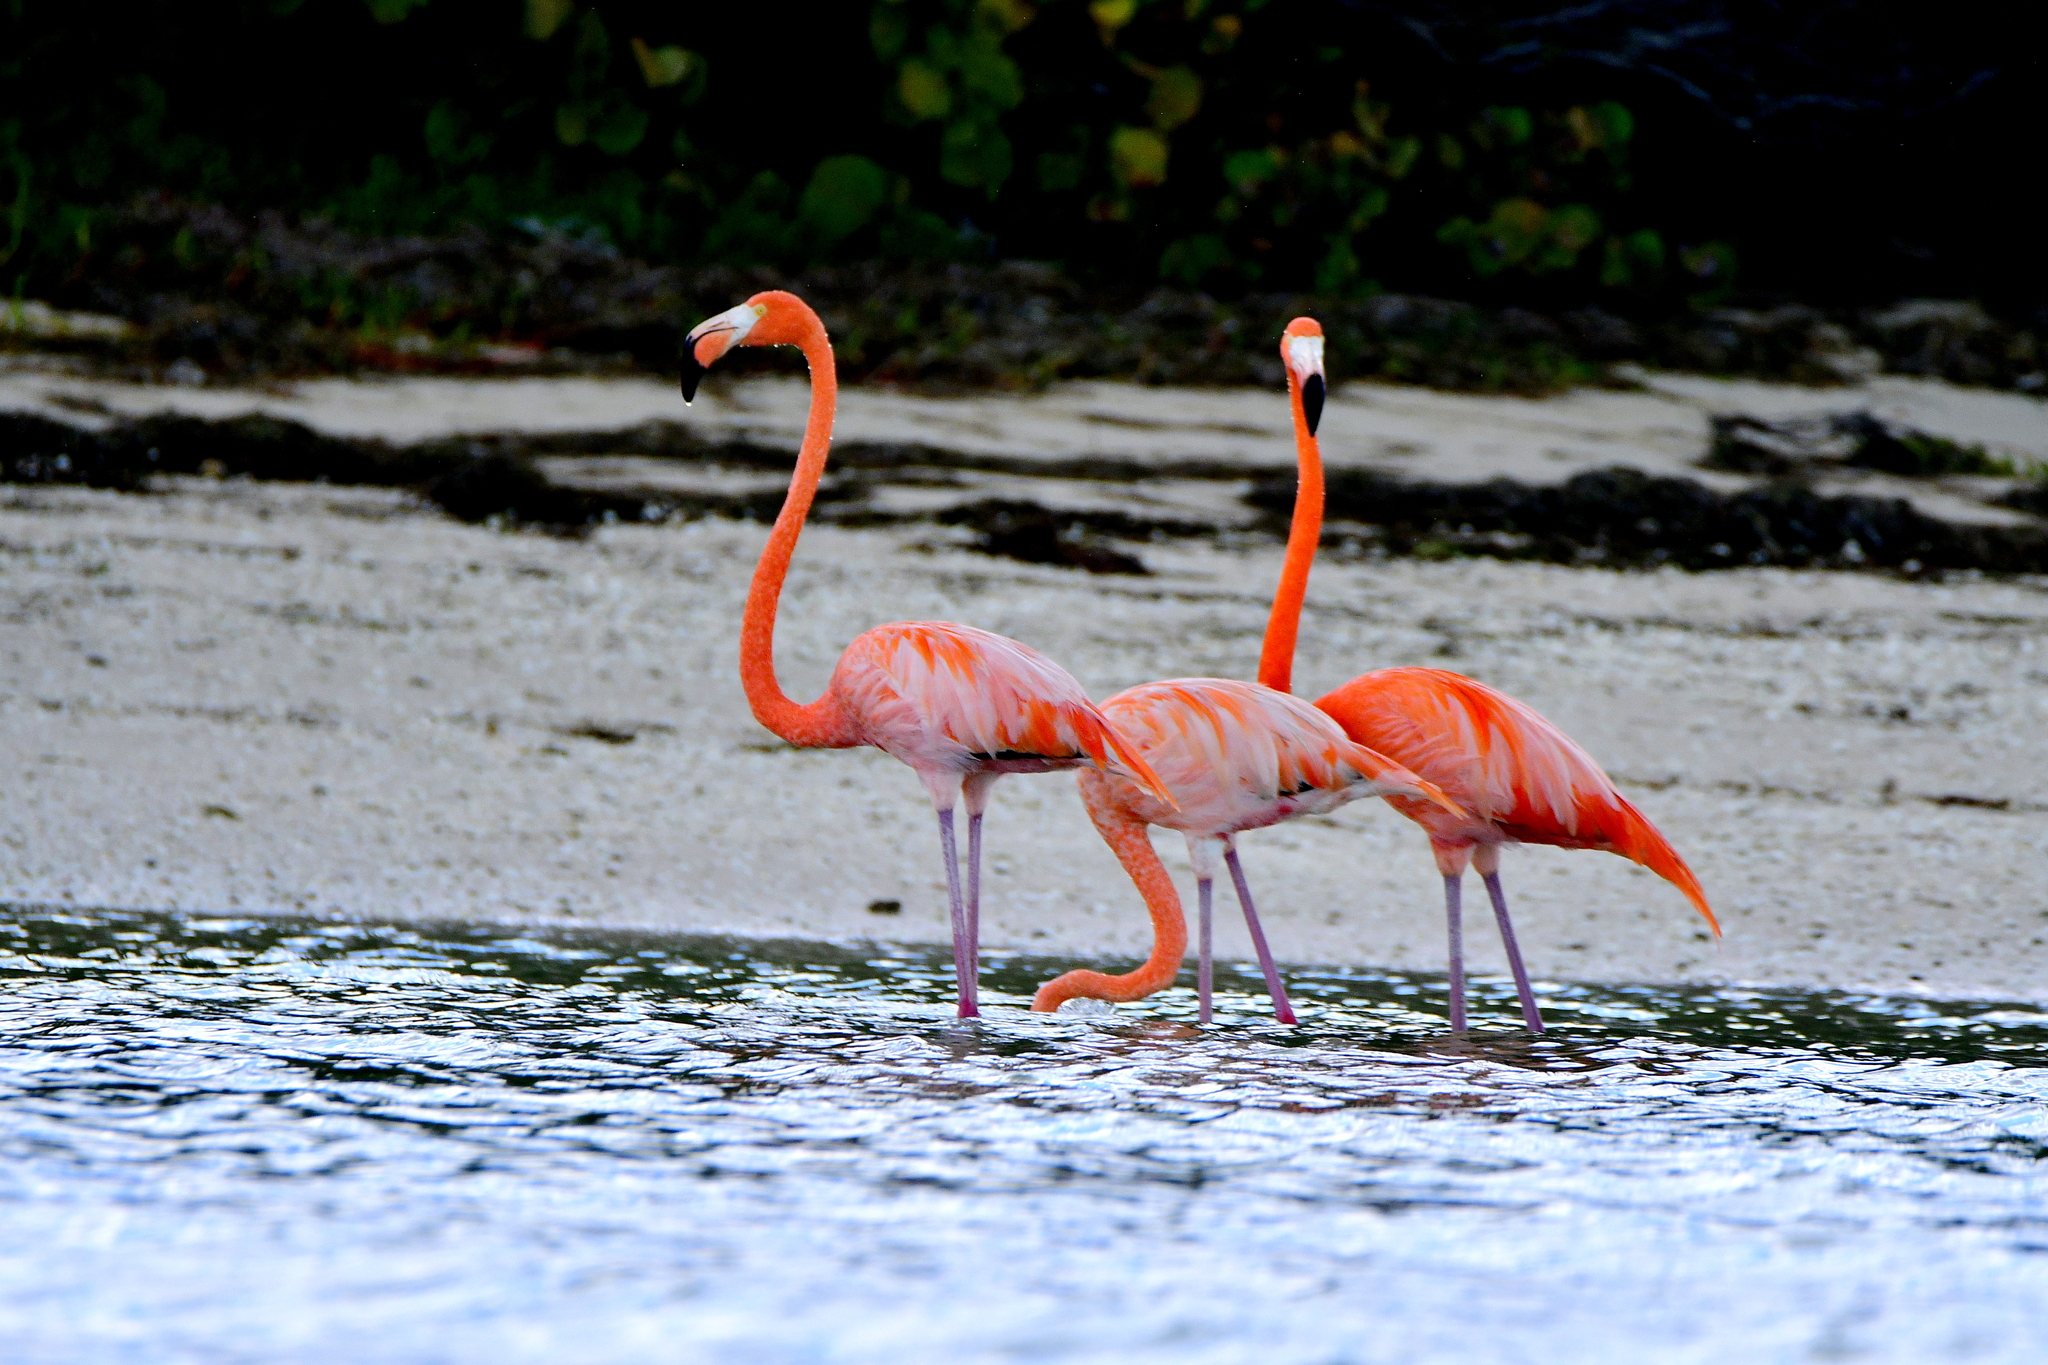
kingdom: Animalia
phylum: Chordata
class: Aves
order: Phoenicopteriformes
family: Phoenicopteridae
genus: Phoenicopterus
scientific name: Phoenicopterus ruber
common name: American flamingo
